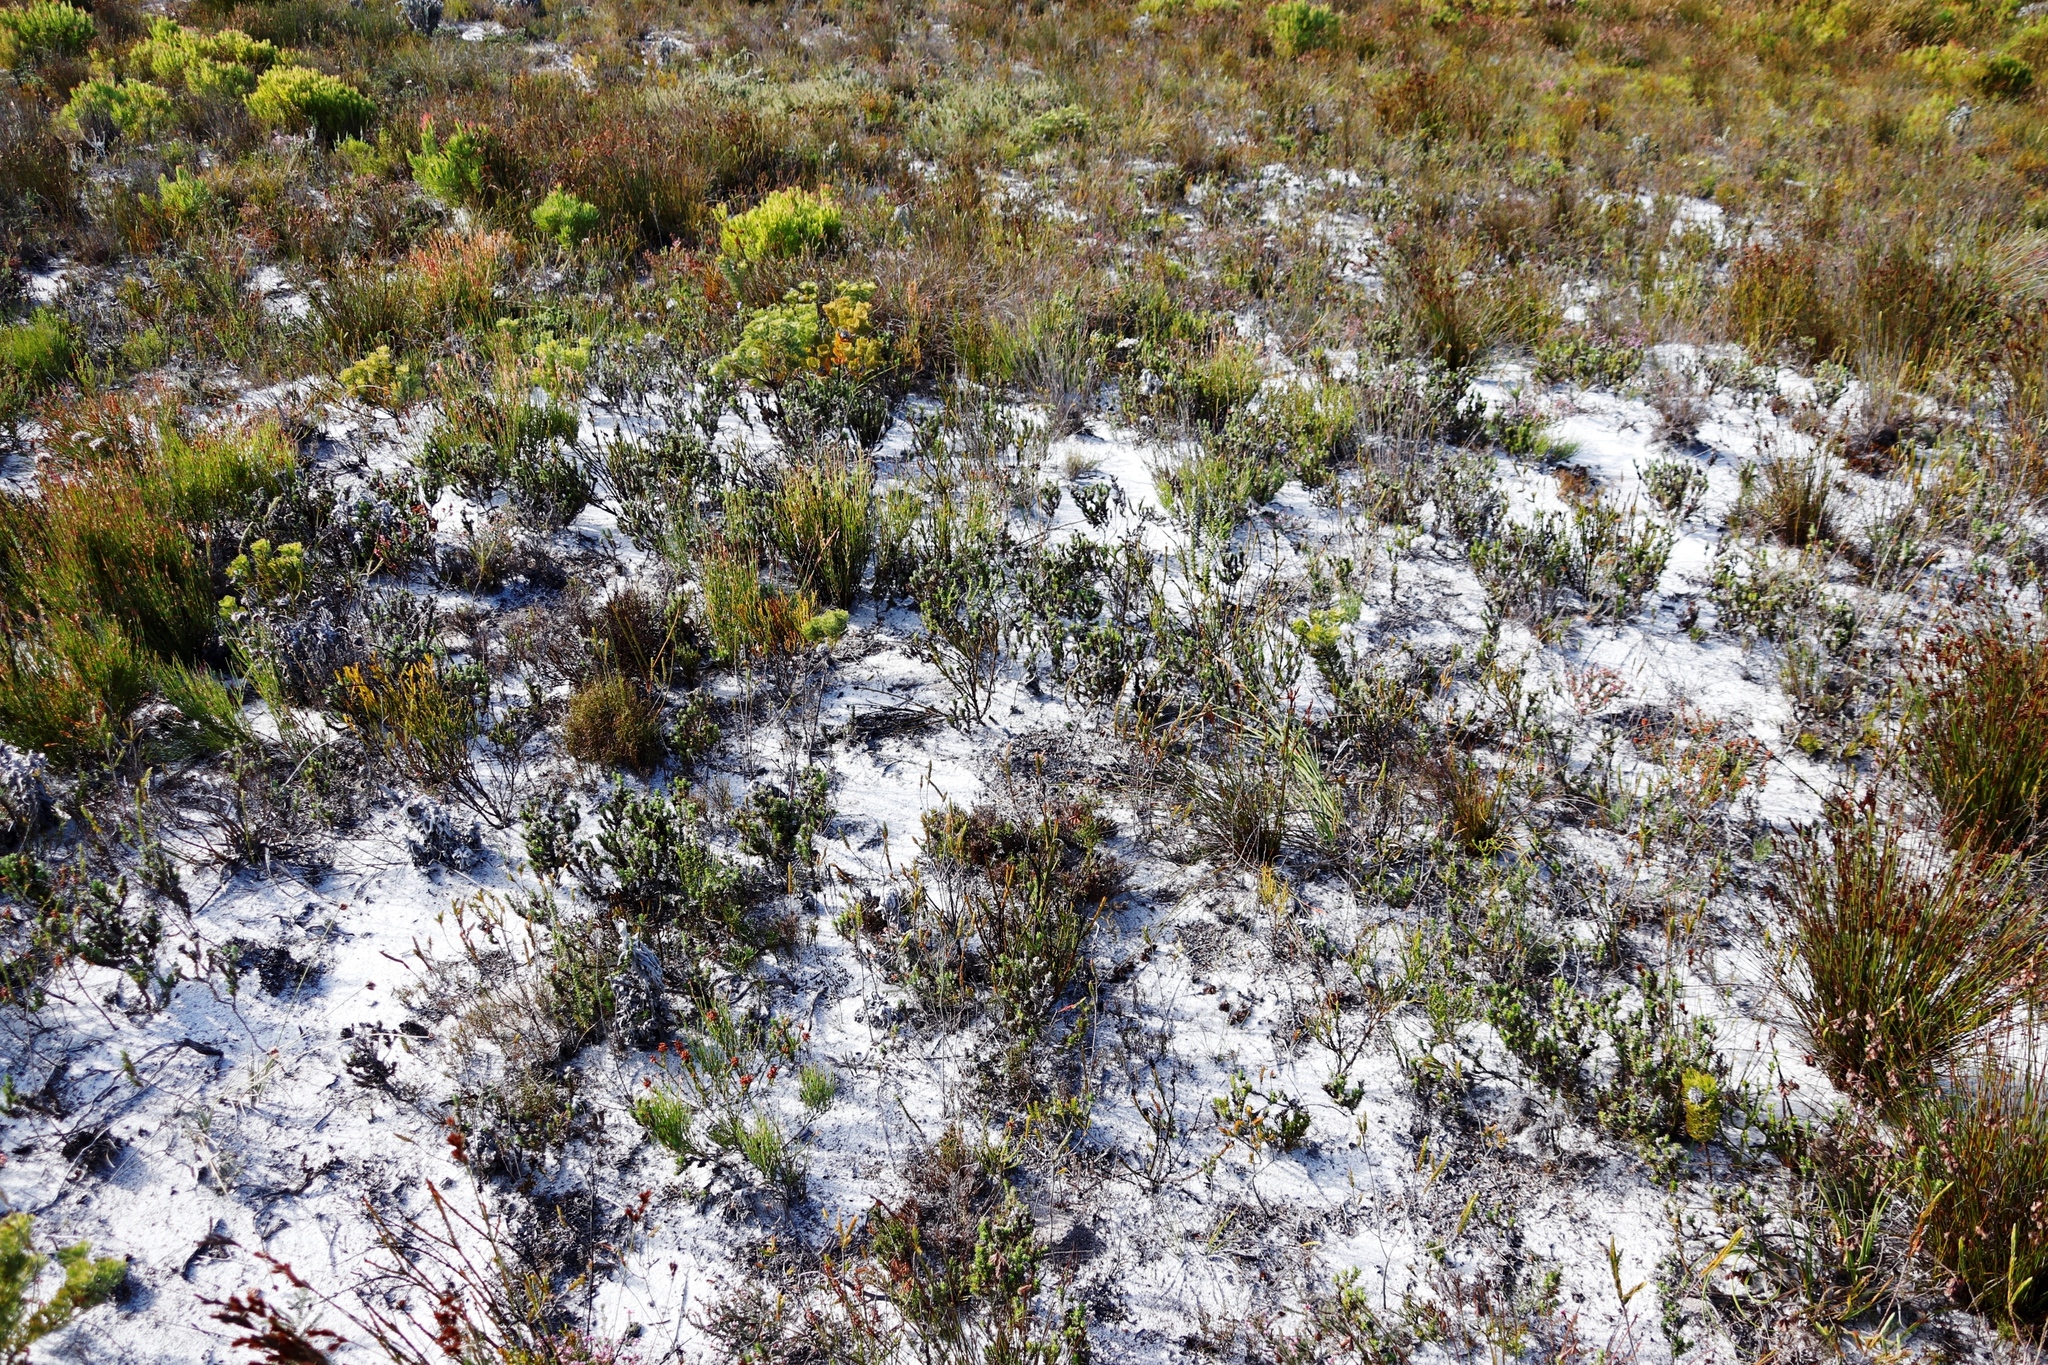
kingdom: Plantae
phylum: Tracheophyta
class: Magnoliopsida
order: Proteales
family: Proteaceae
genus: Serruria
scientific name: Serruria villosa
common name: Golden spiderhead
